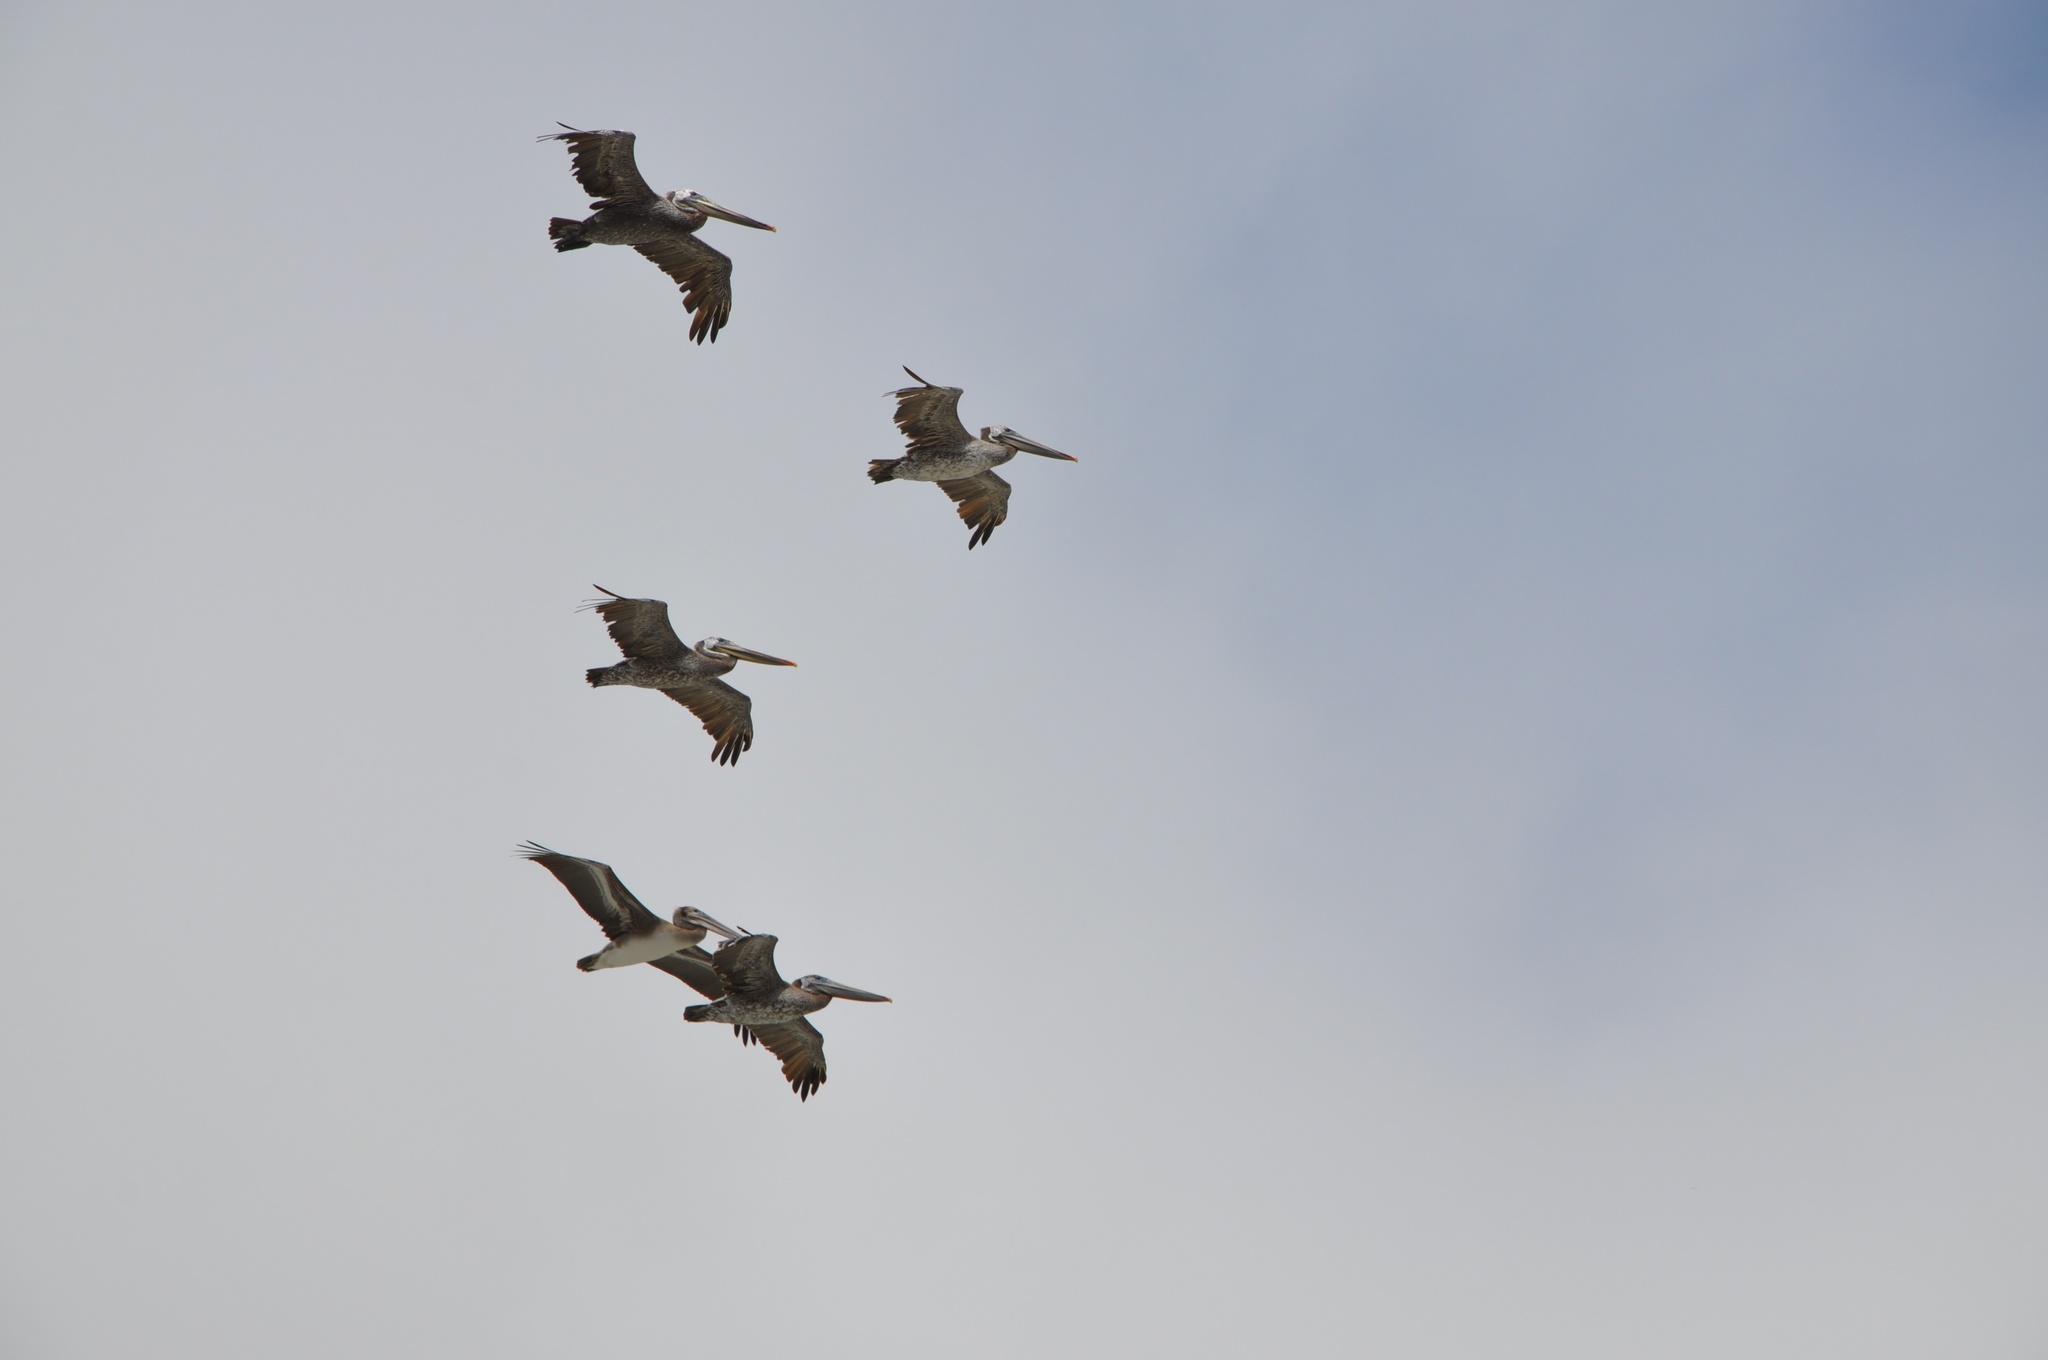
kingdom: Animalia
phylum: Chordata
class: Aves
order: Pelecaniformes
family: Pelecanidae
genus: Pelecanus
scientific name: Pelecanus occidentalis
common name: Brown pelican
